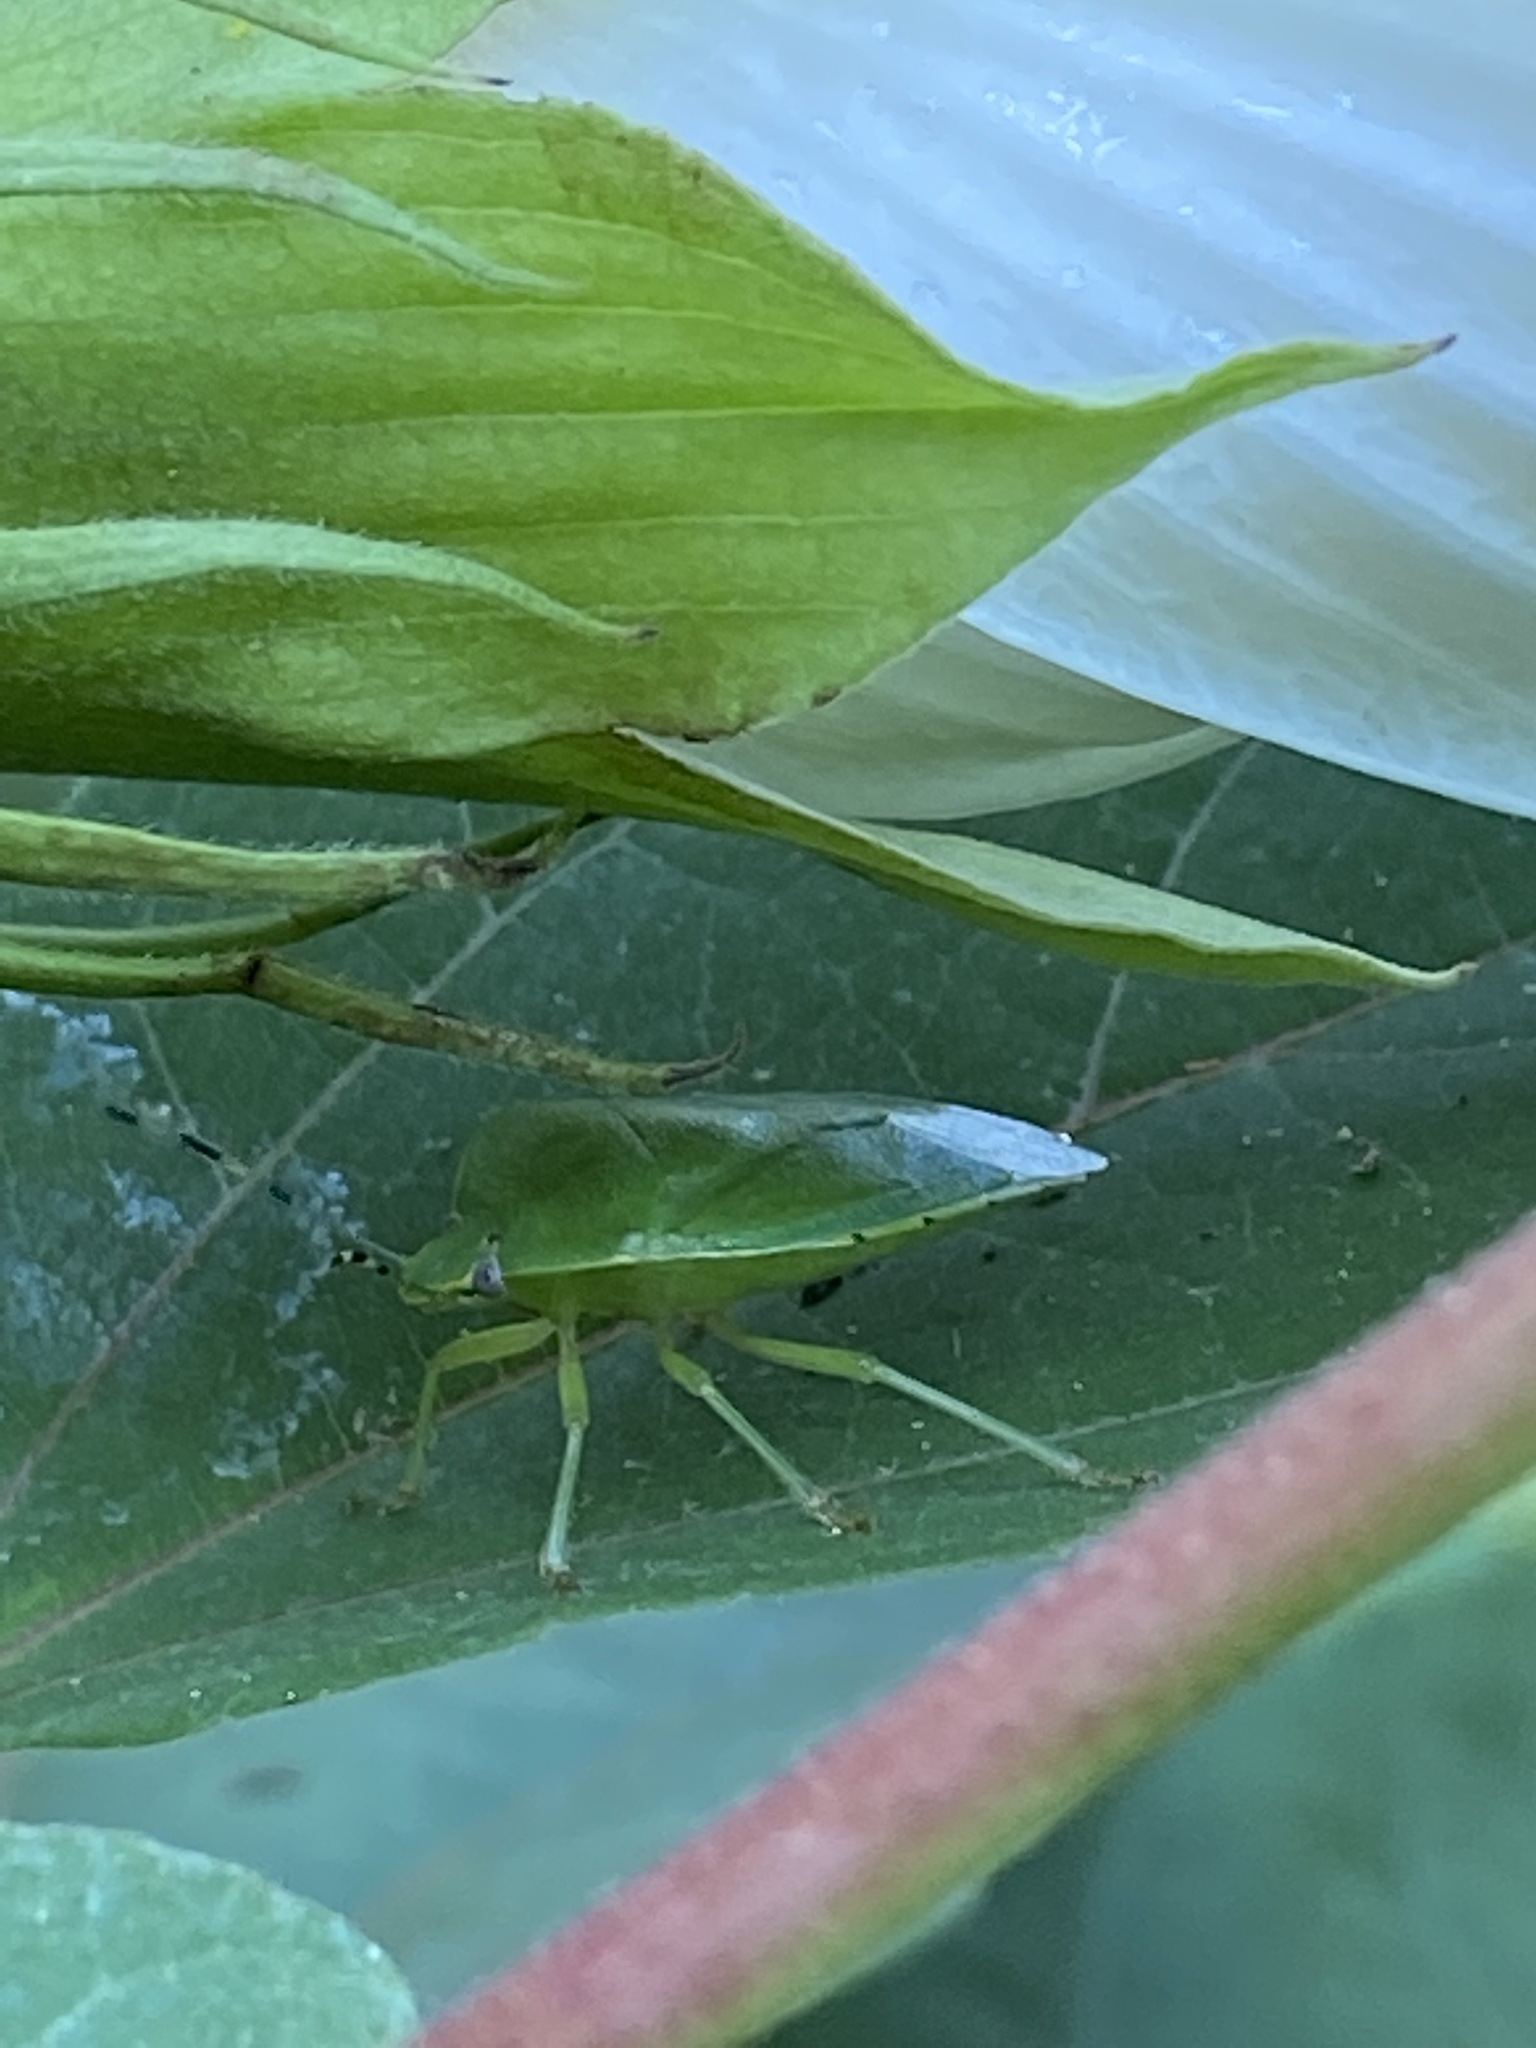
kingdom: Animalia
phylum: Arthropoda
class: Insecta
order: Hemiptera
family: Pentatomidae
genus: Chinavia
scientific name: Chinavia hilaris
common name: Green stink bug
